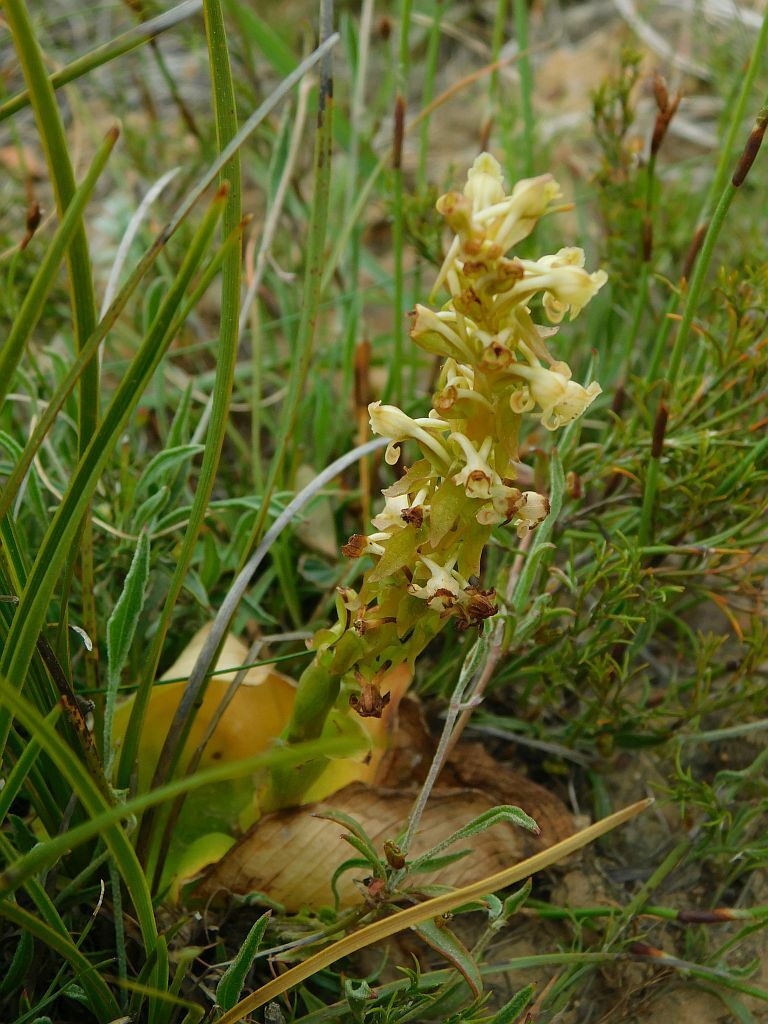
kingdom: Plantae
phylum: Tracheophyta
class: Liliopsida
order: Asparagales
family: Orchidaceae
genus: Satyrium
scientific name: Satyrium humile
